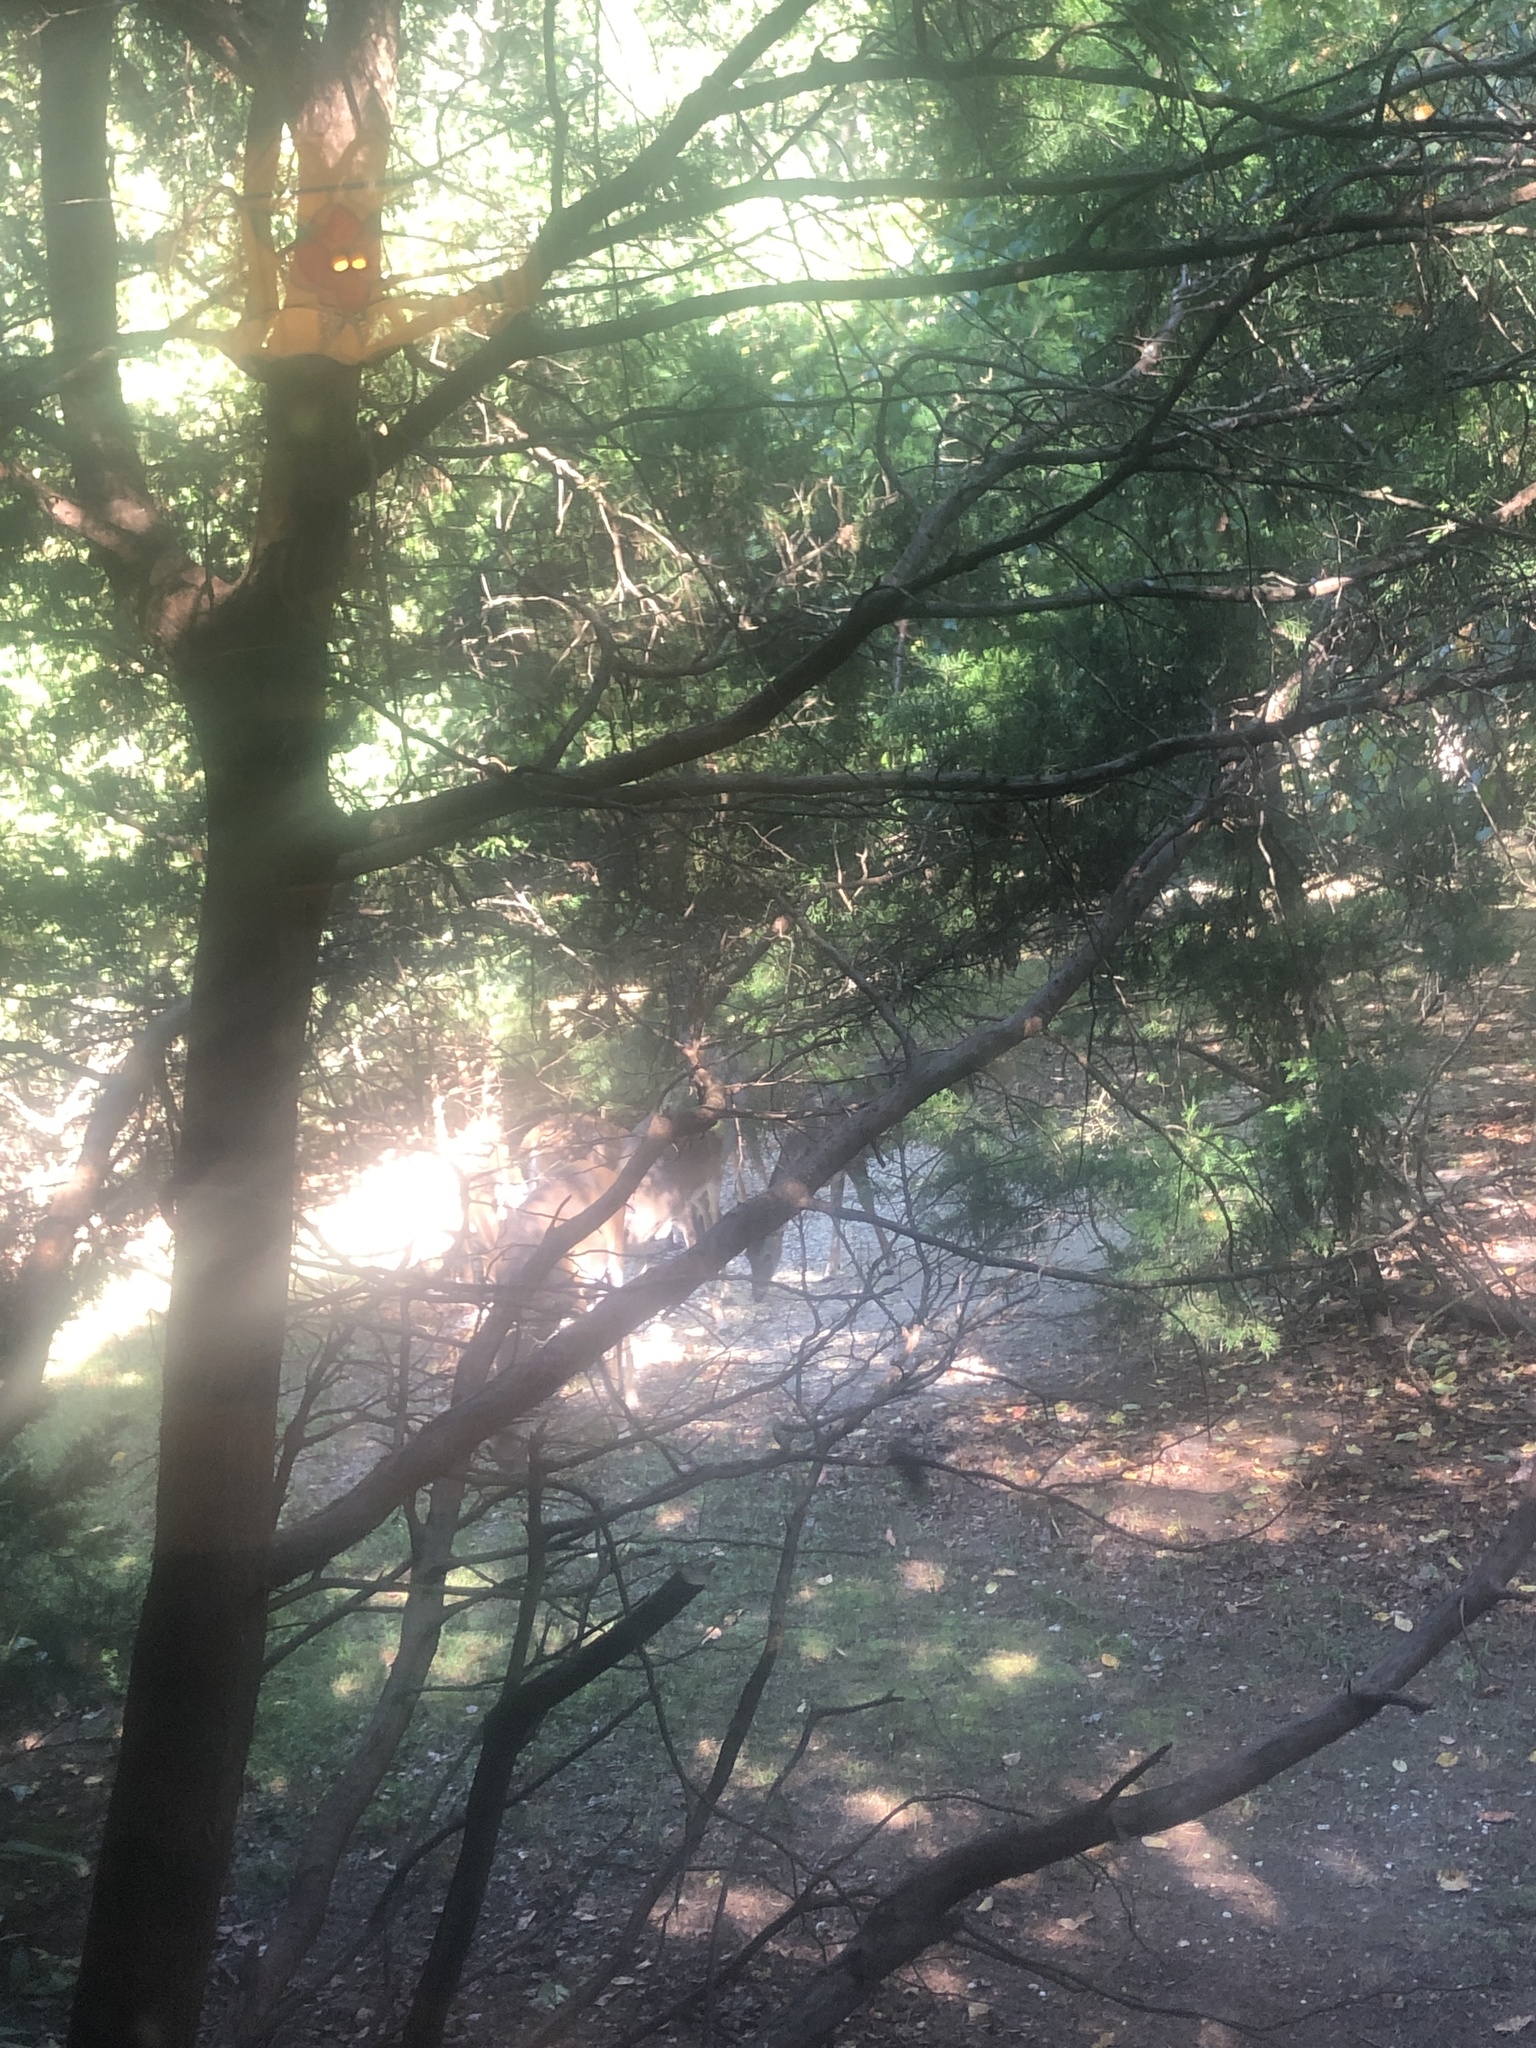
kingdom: Animalia
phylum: Chordata
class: Mammalia
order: Artiodactyla
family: Cervidae
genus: Odocoileus
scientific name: Odocoileus virginianus
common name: White-tailed deer
